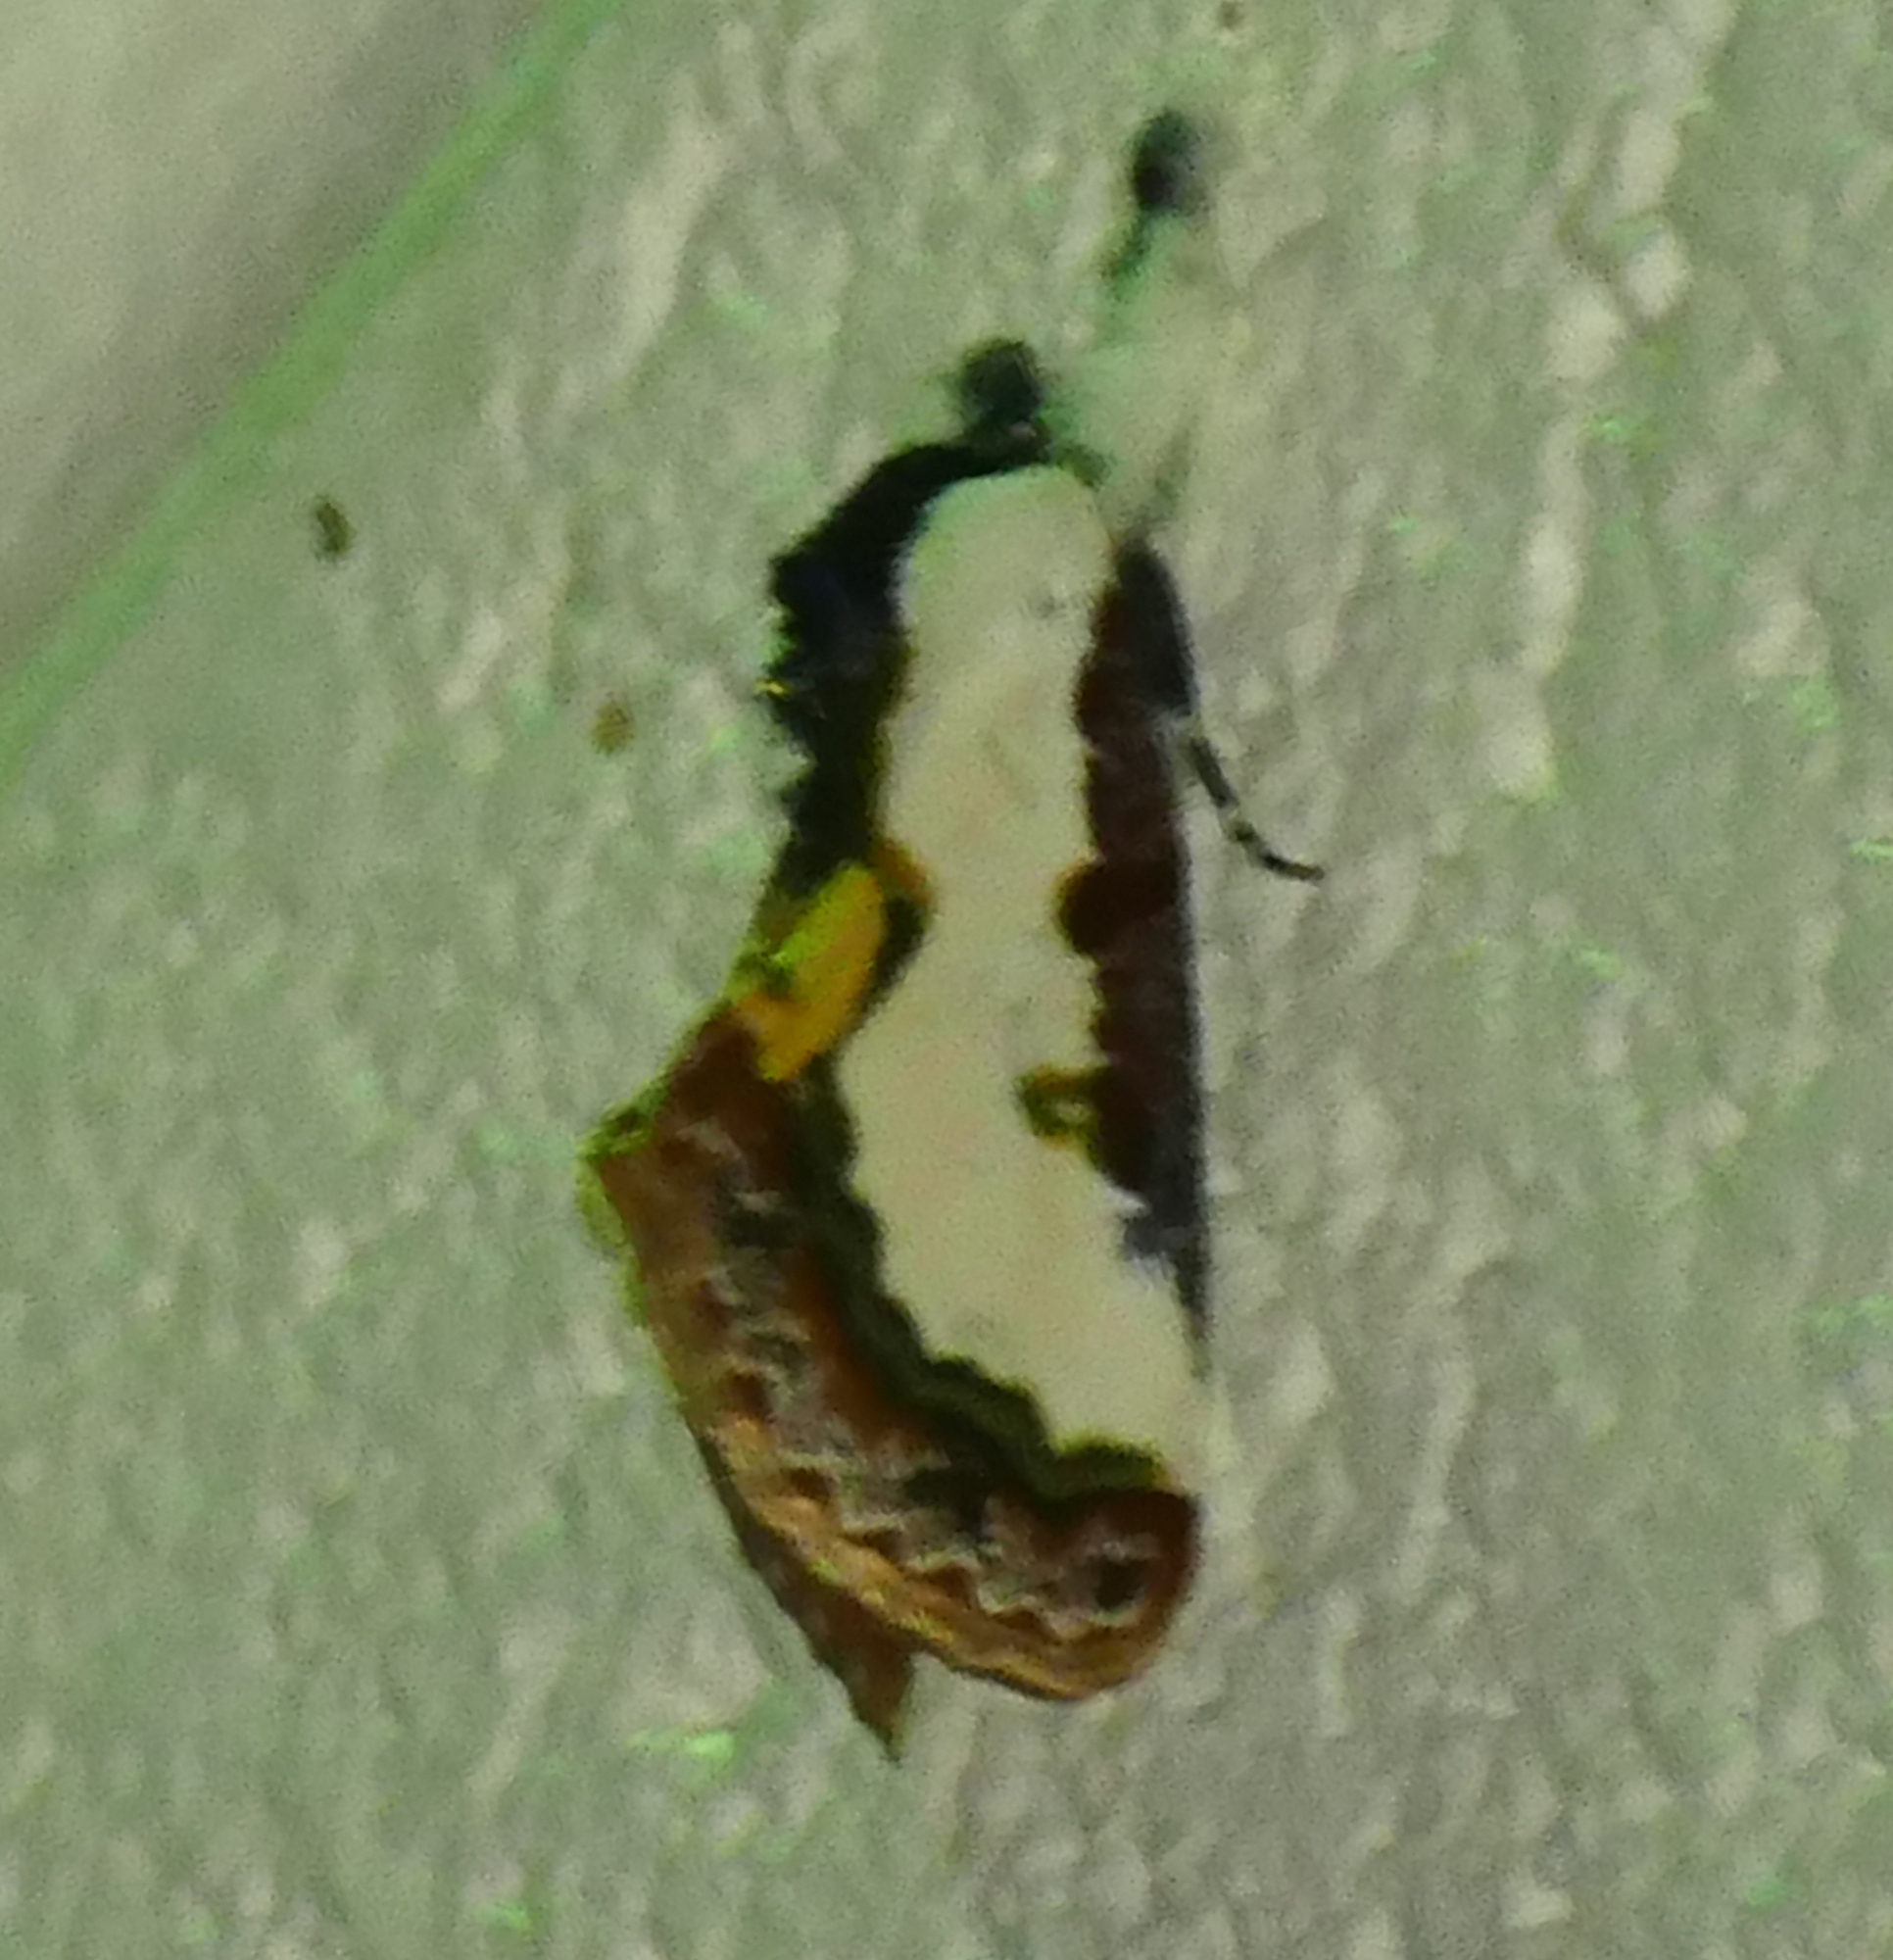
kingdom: Animalia
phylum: Arthropoda
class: Insecta
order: Lepidoptera
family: Noctuidae
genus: Eudryas
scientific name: Eudryas unio
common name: Pearly wood-nymph
